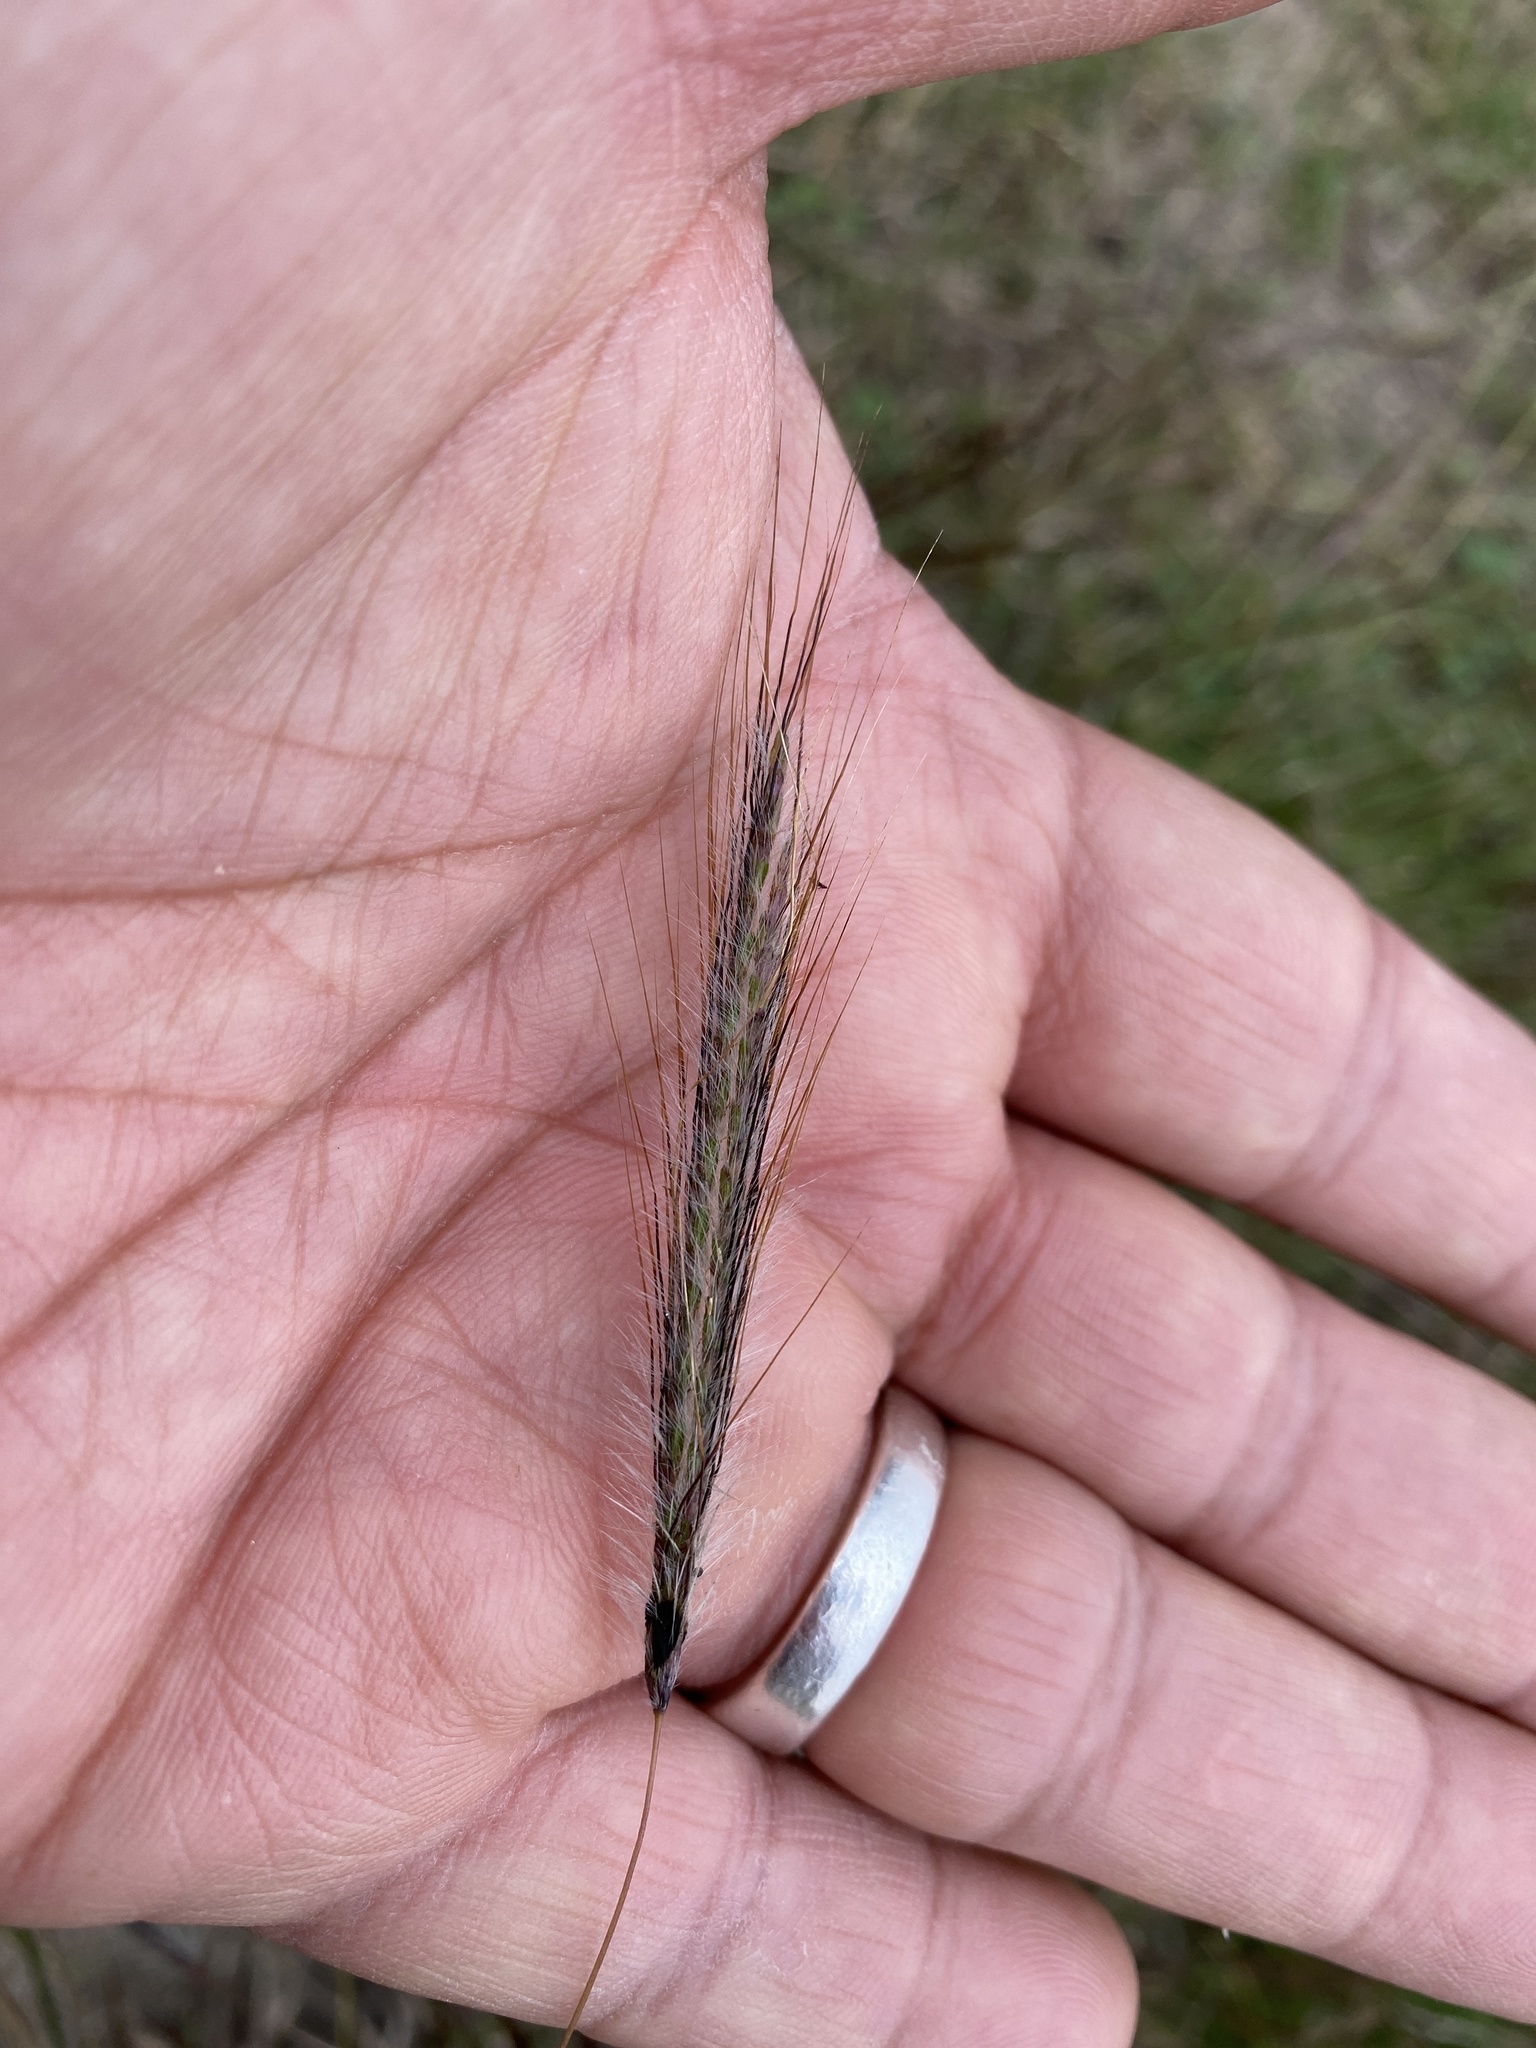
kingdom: Plantae
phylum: Tracheophyta
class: Liliopsida
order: Poales
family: Poaceae
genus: Dichanthium
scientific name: Dichanthium sericeum
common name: Silky bluestem
